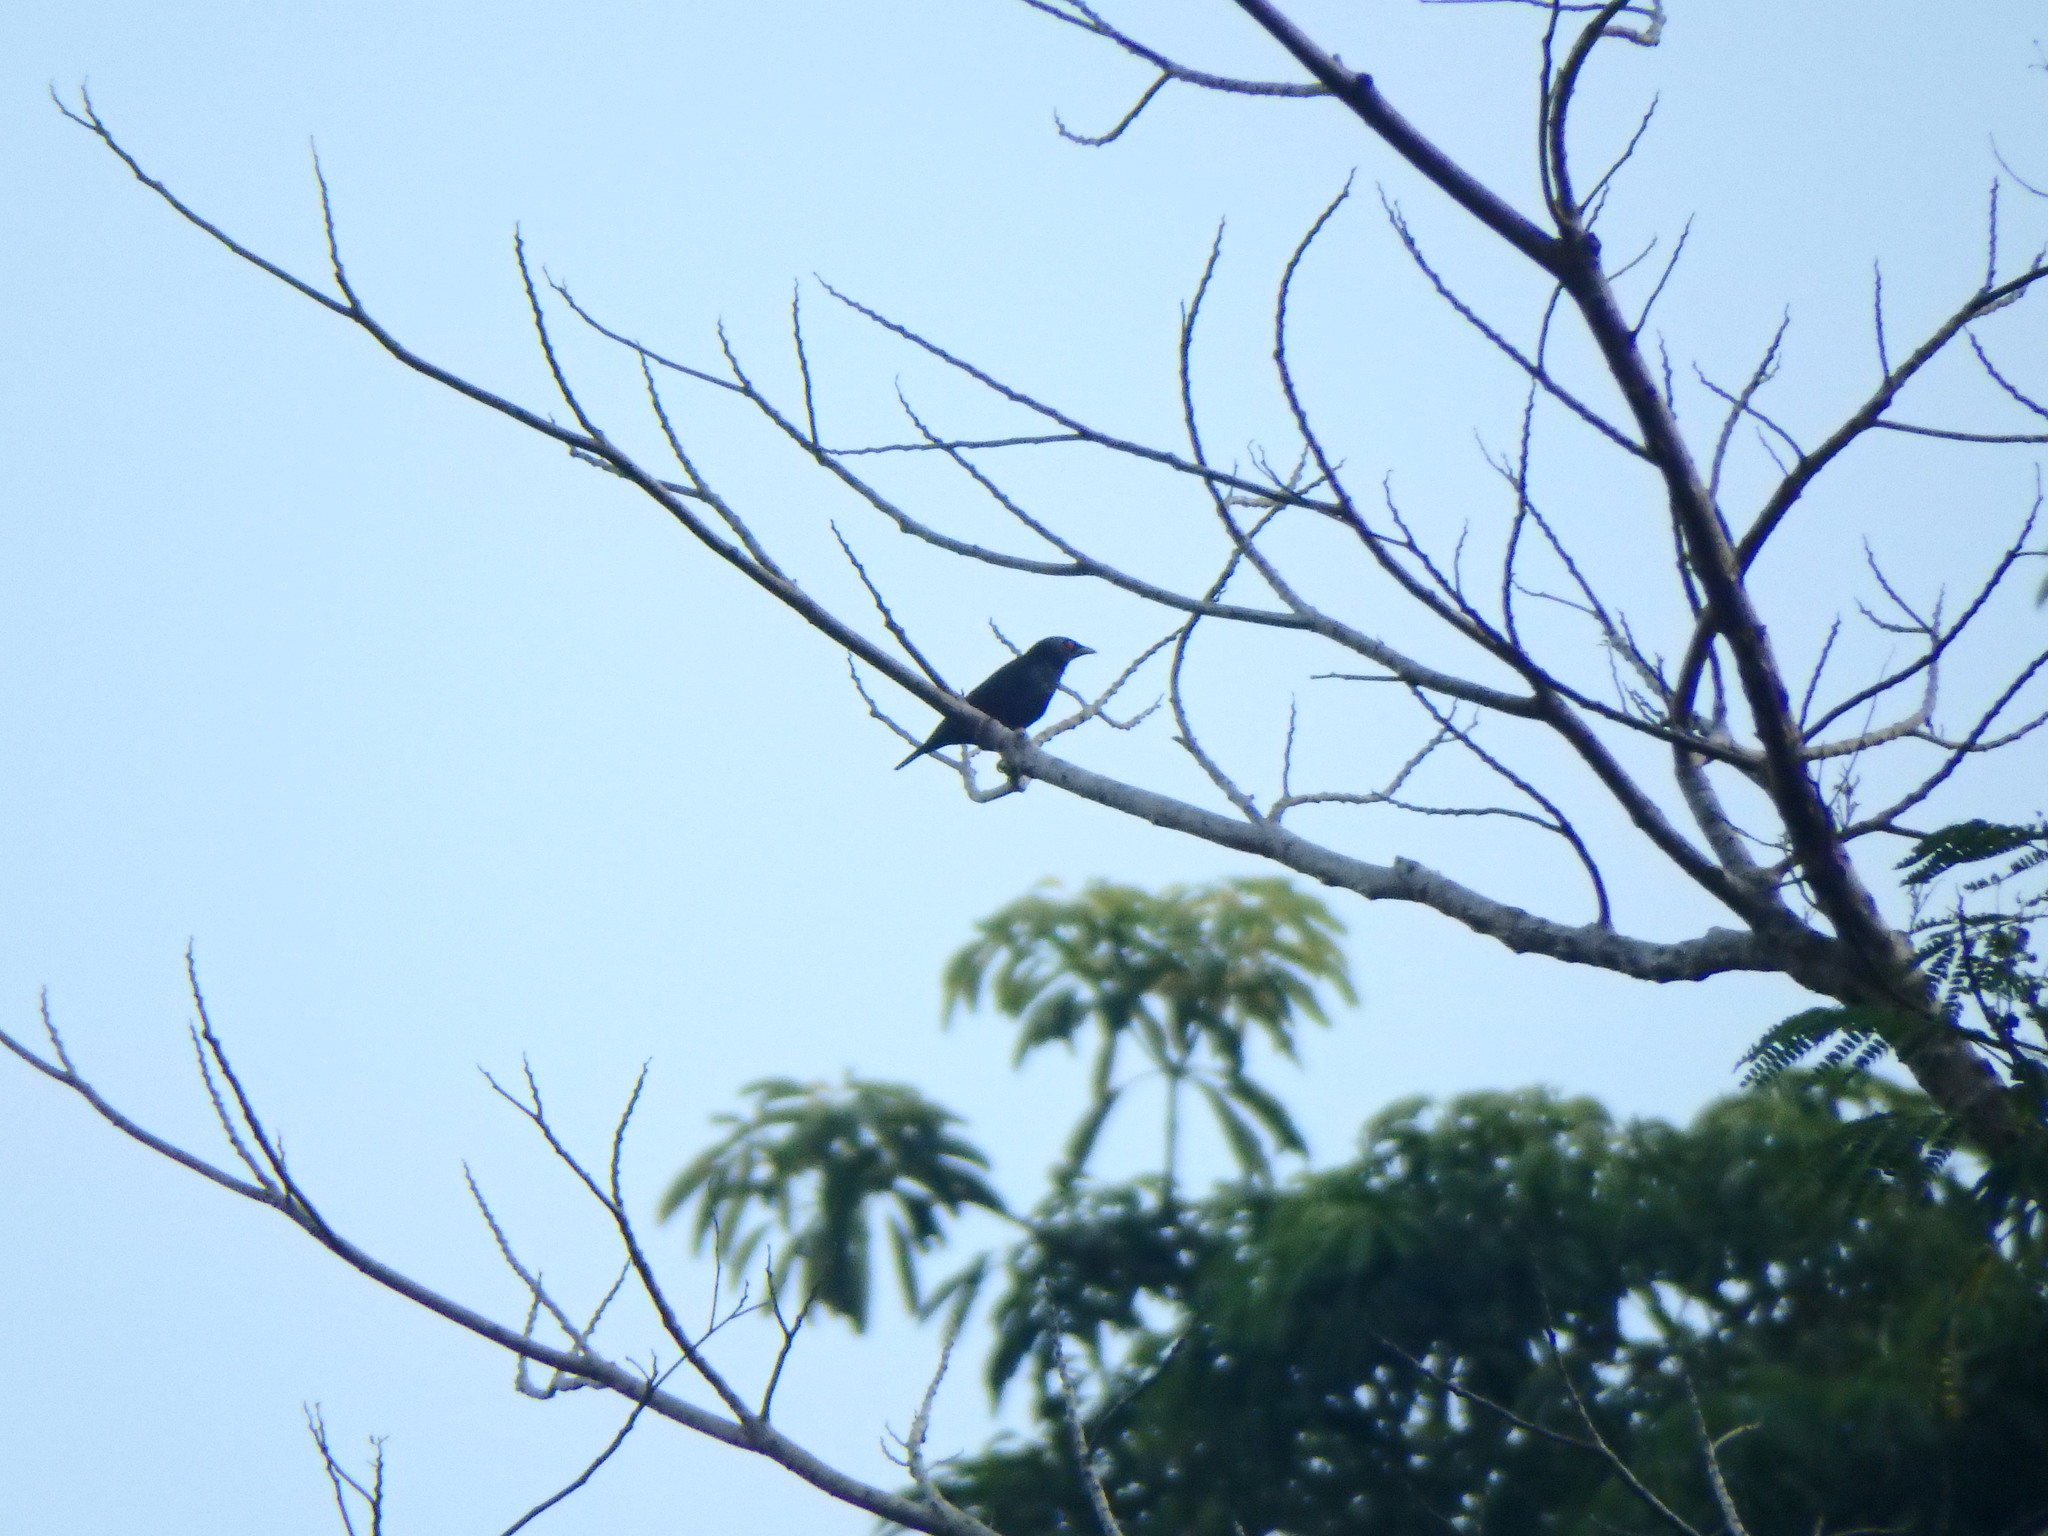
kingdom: Animalia
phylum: Chordata
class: Aves
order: Passeriformes
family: Sturnidae
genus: Aplonis
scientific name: Aplonis panayensis
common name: Asian glossy starling
